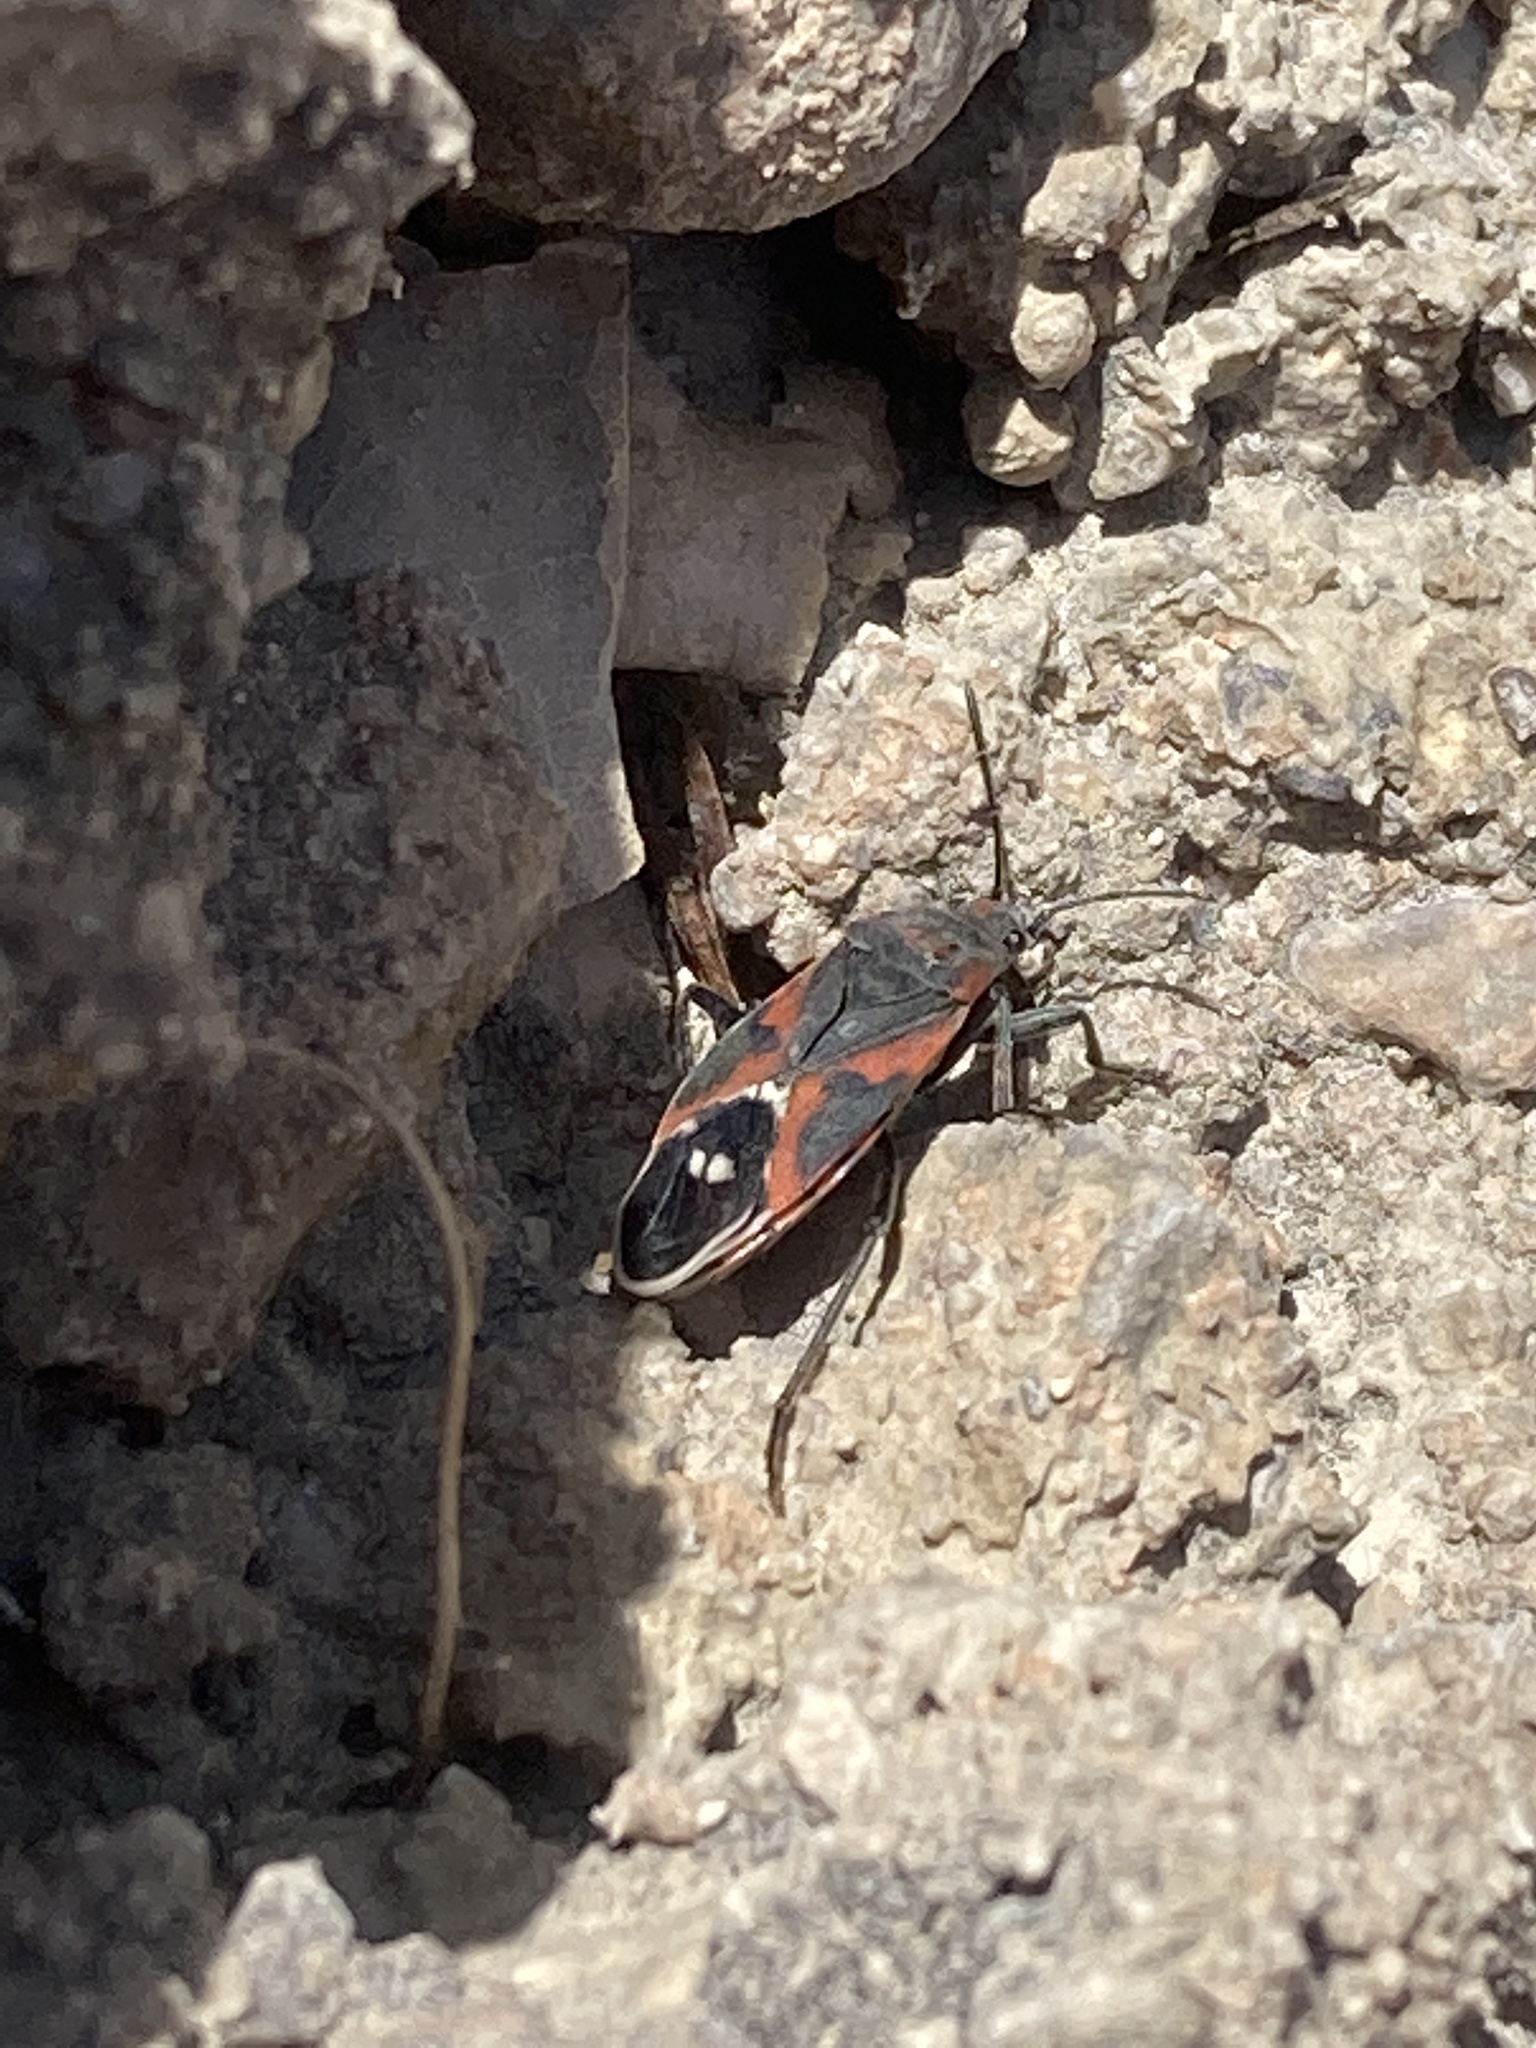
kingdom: Animalia
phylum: Arthropoda
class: Insecta
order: Hemiptera
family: Lygaeidae
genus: Lygaeus
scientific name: Lygaeus kalmii
